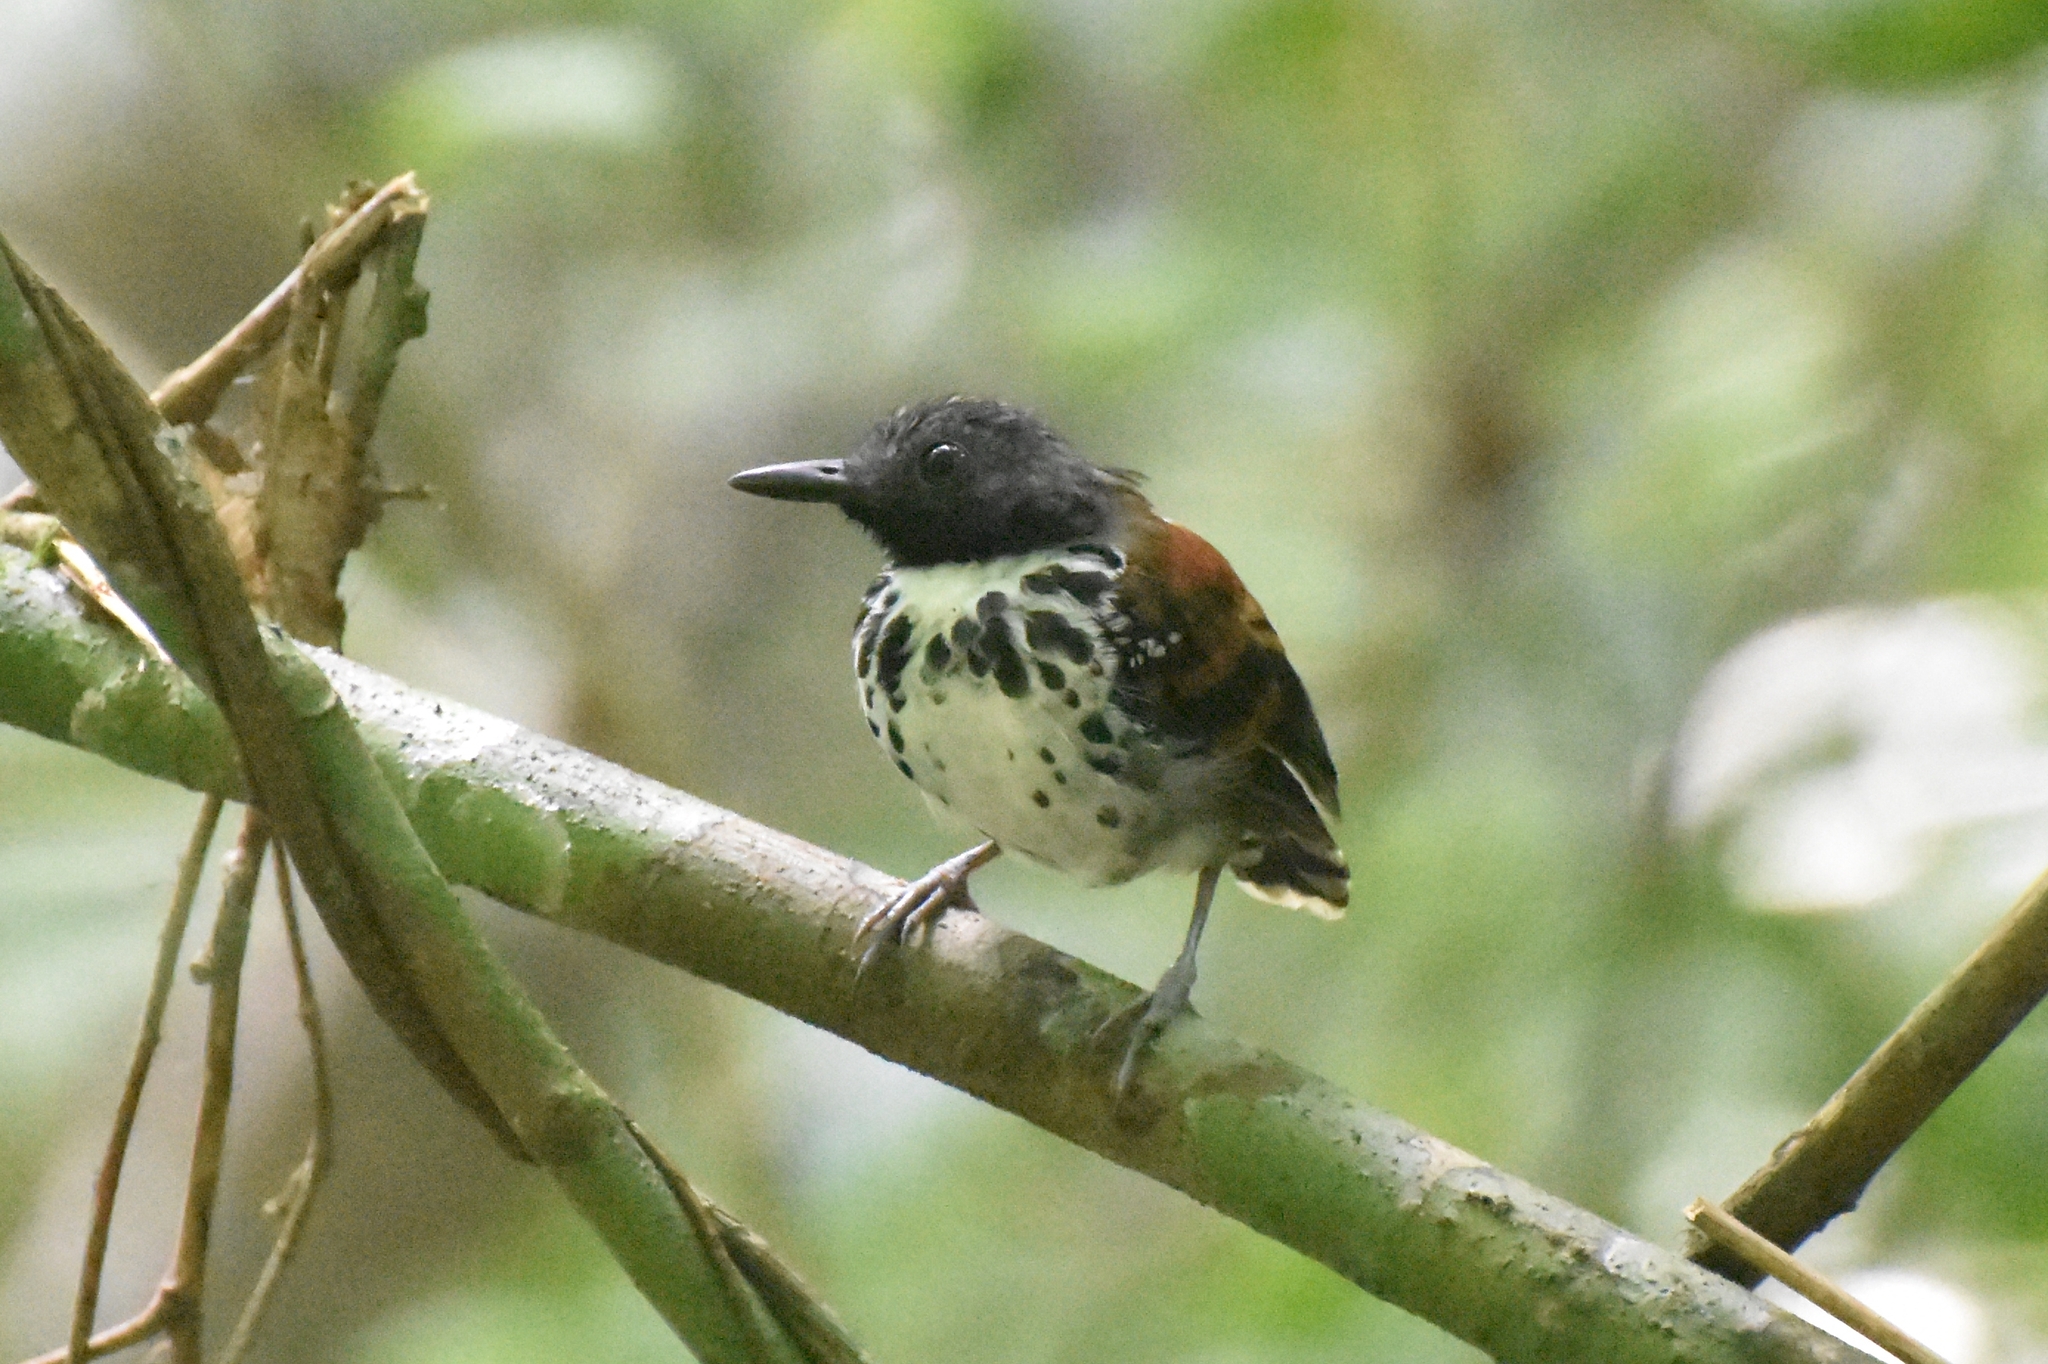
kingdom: Animalia
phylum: Chordata
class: Aves
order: Passeriformes
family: Thamnophilidae
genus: Hylophylax
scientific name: Hylophylax naevioides
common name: Spotted antbird
